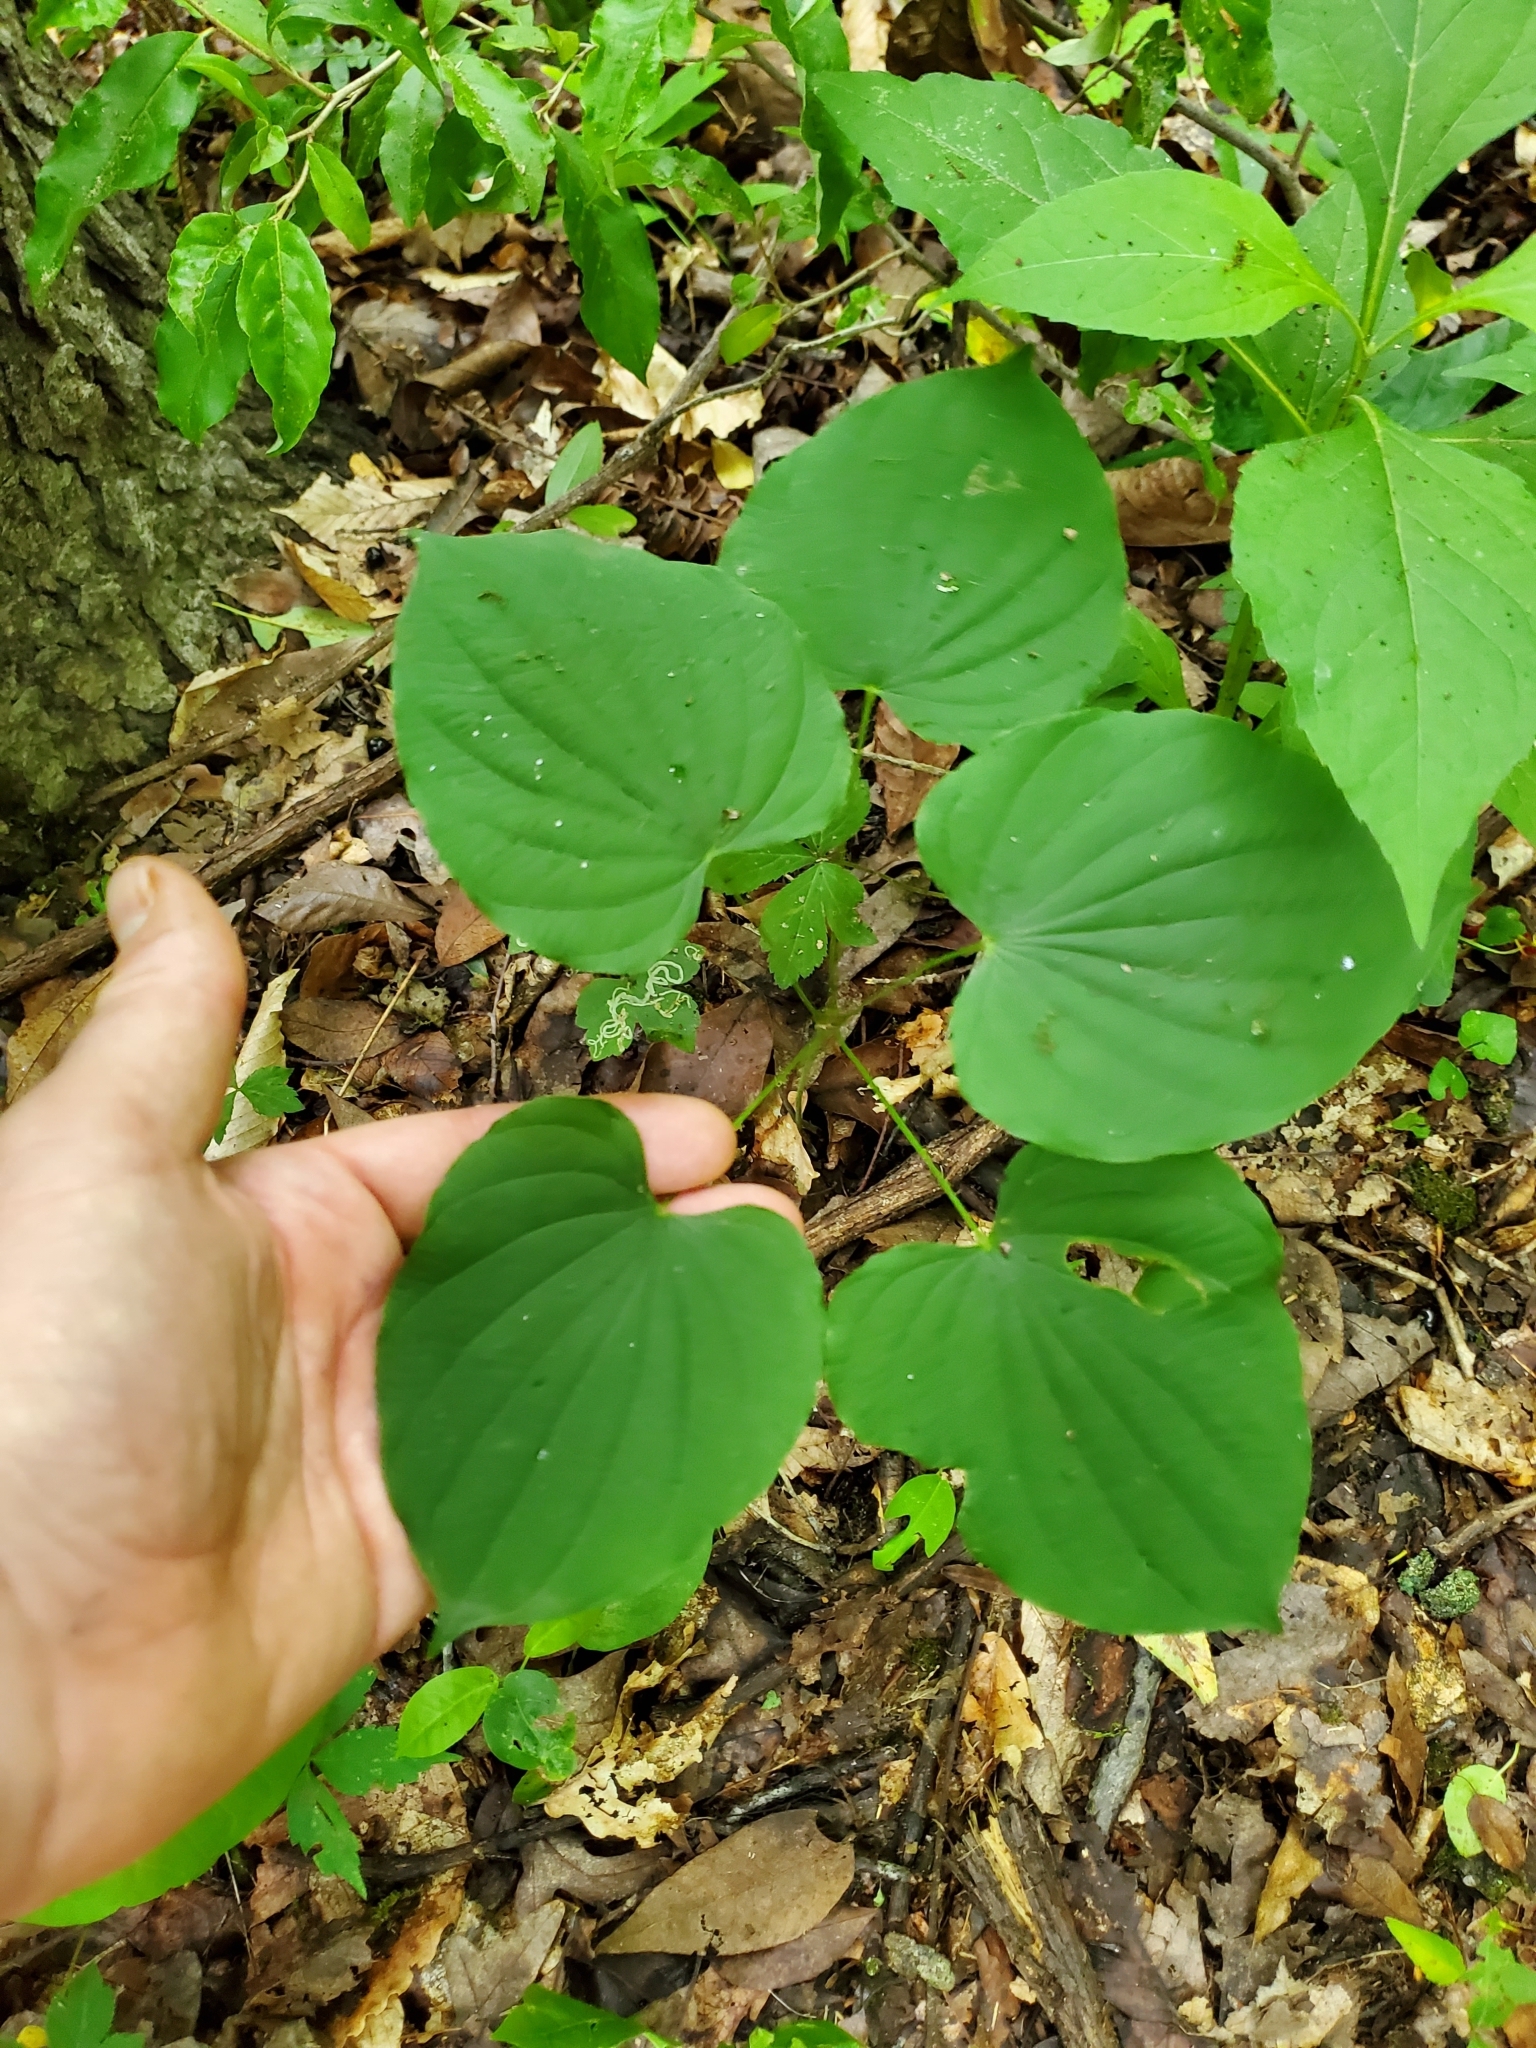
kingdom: Plantae
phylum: Tracheophyta
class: Liliopsida
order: Dioscoreales
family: Dioscoreaceae
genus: Dioscorea
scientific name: Dioscorea villosa
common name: Wild yam
